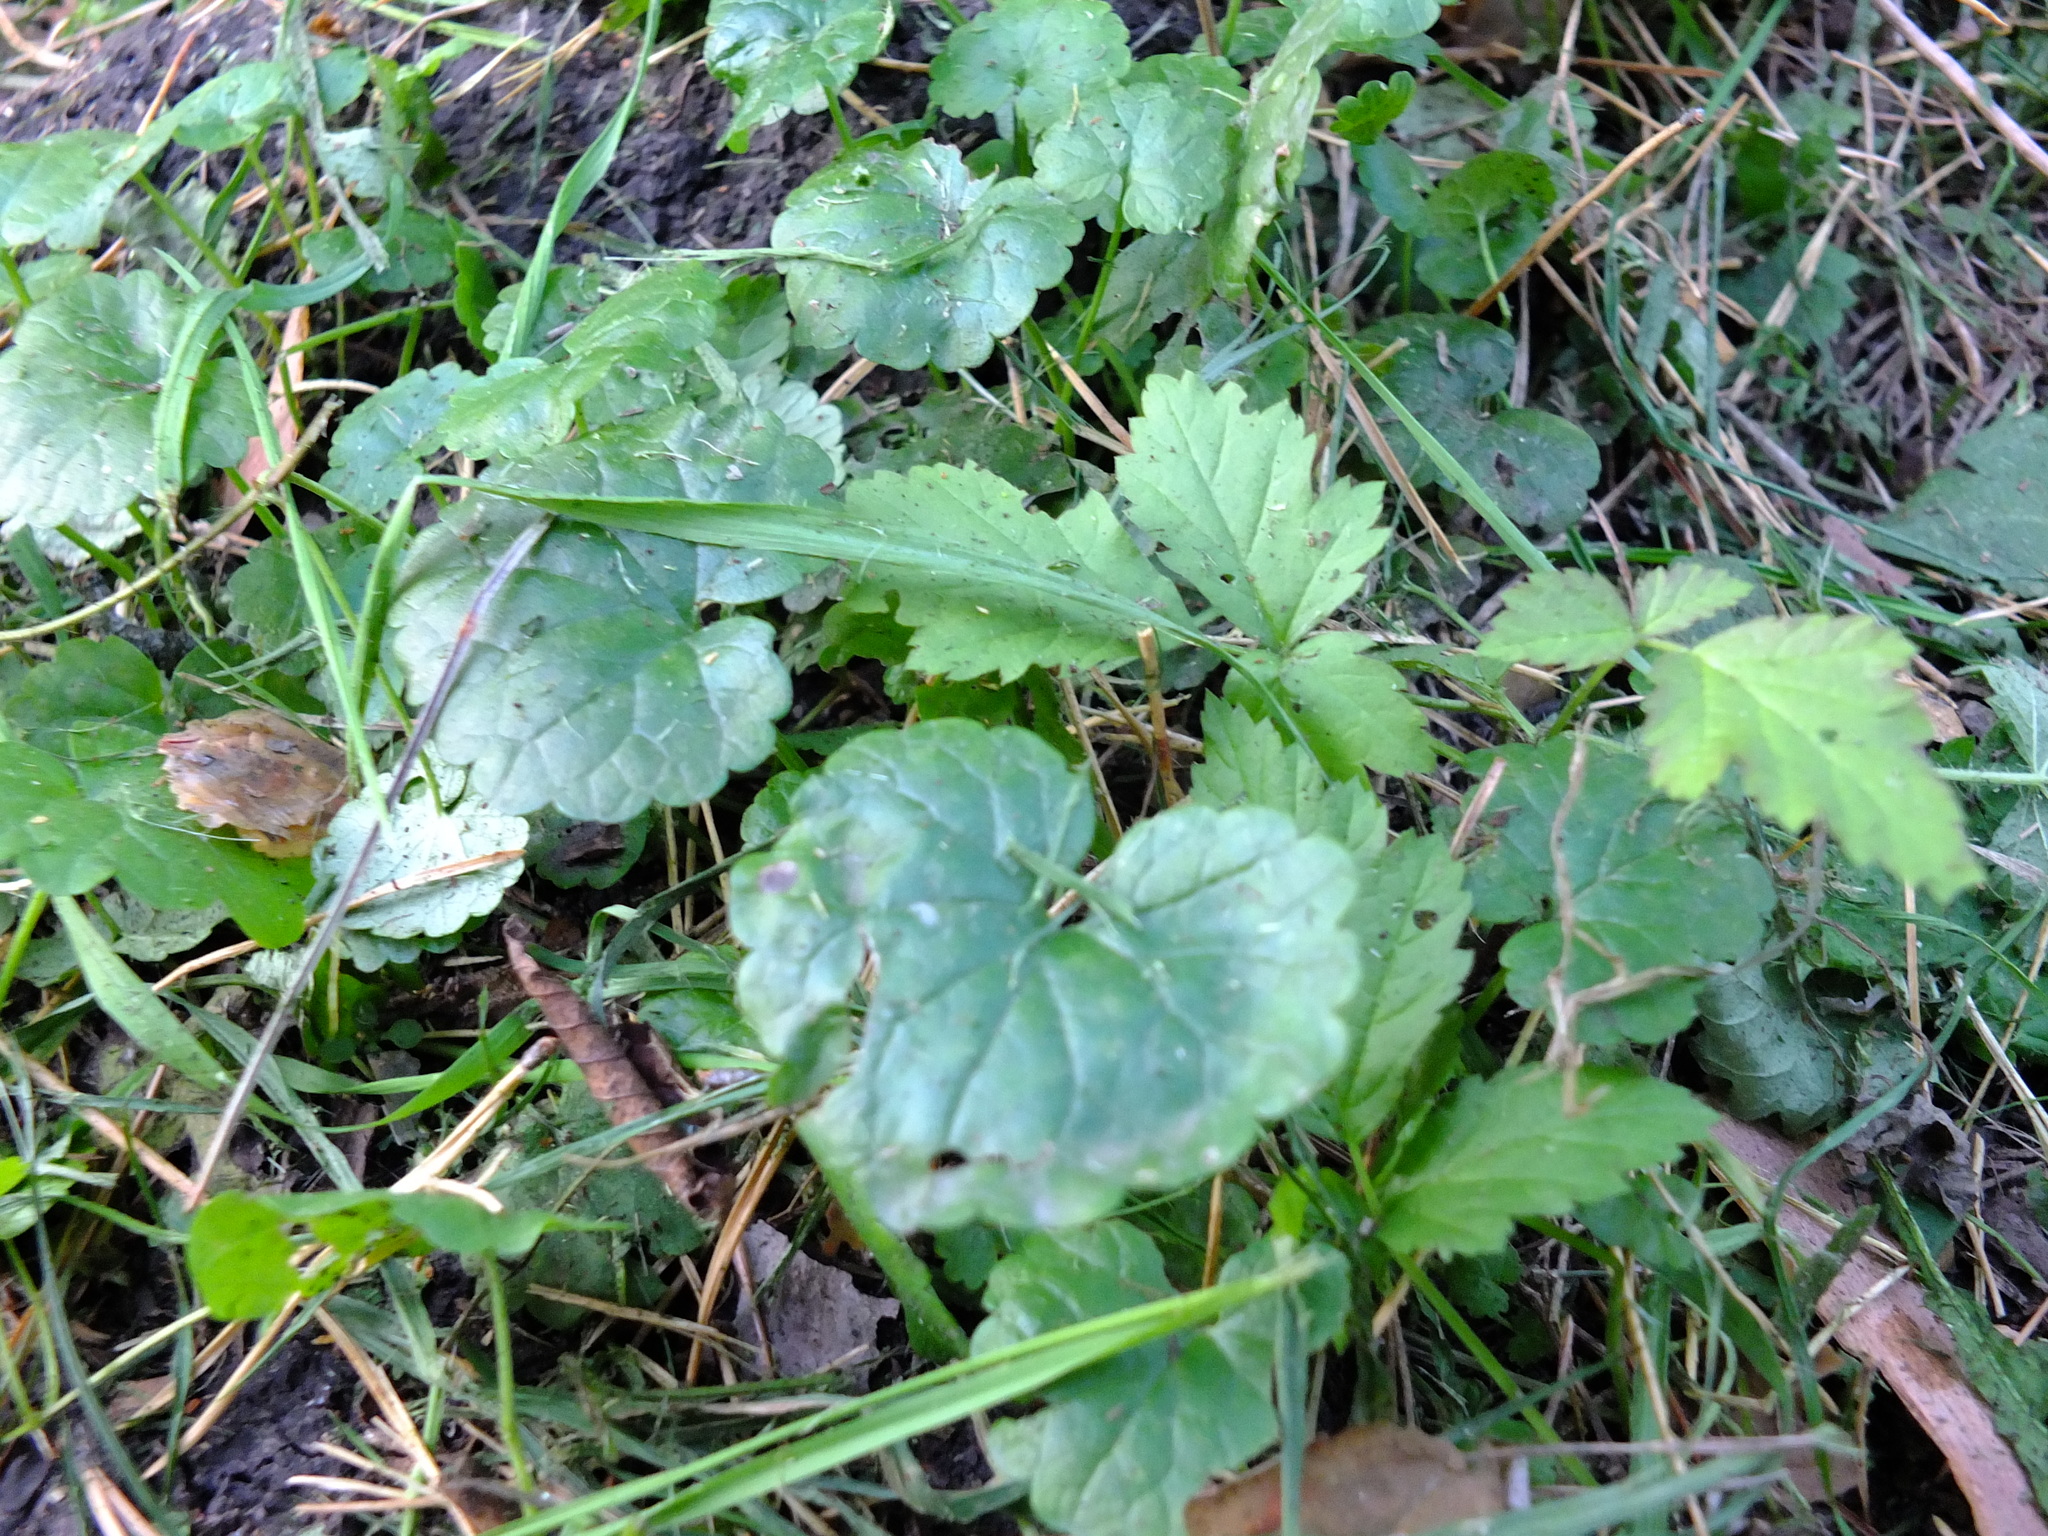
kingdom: Plantae
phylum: Tracheophyta
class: Magnoliopsida
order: Lamiales
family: Lamiaceae
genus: Glechoma
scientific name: Glechoma hederacea
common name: Ground ivy
